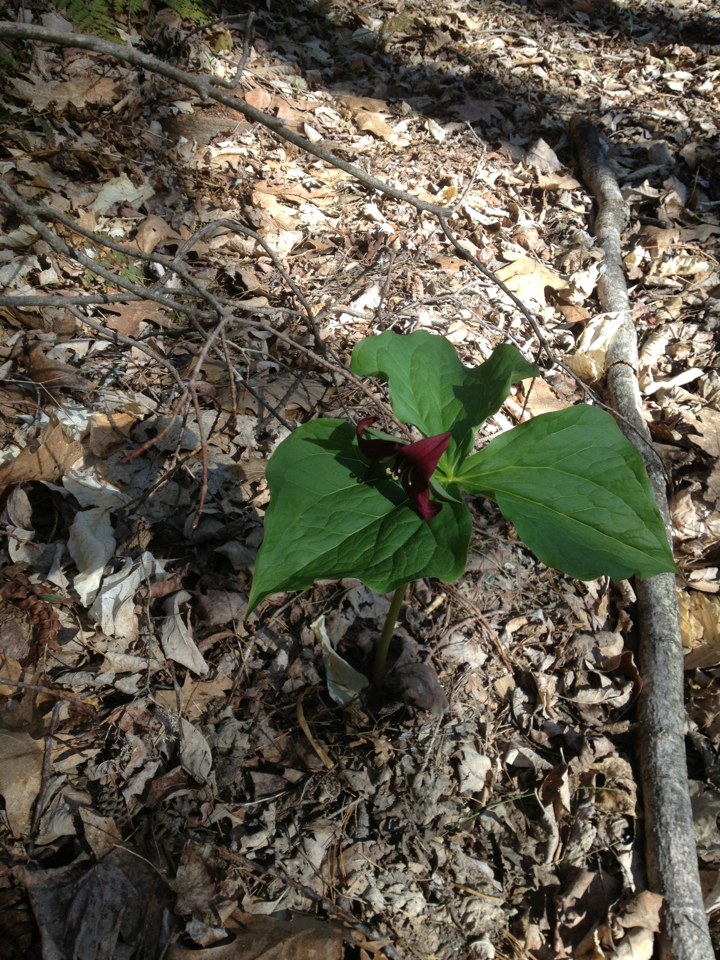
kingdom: Plantae
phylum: Tracheophyta
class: Liliopsida
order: Liliales
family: Melanthiaceae
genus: Trillium
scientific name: Trillium erectum
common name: Purple trillium
